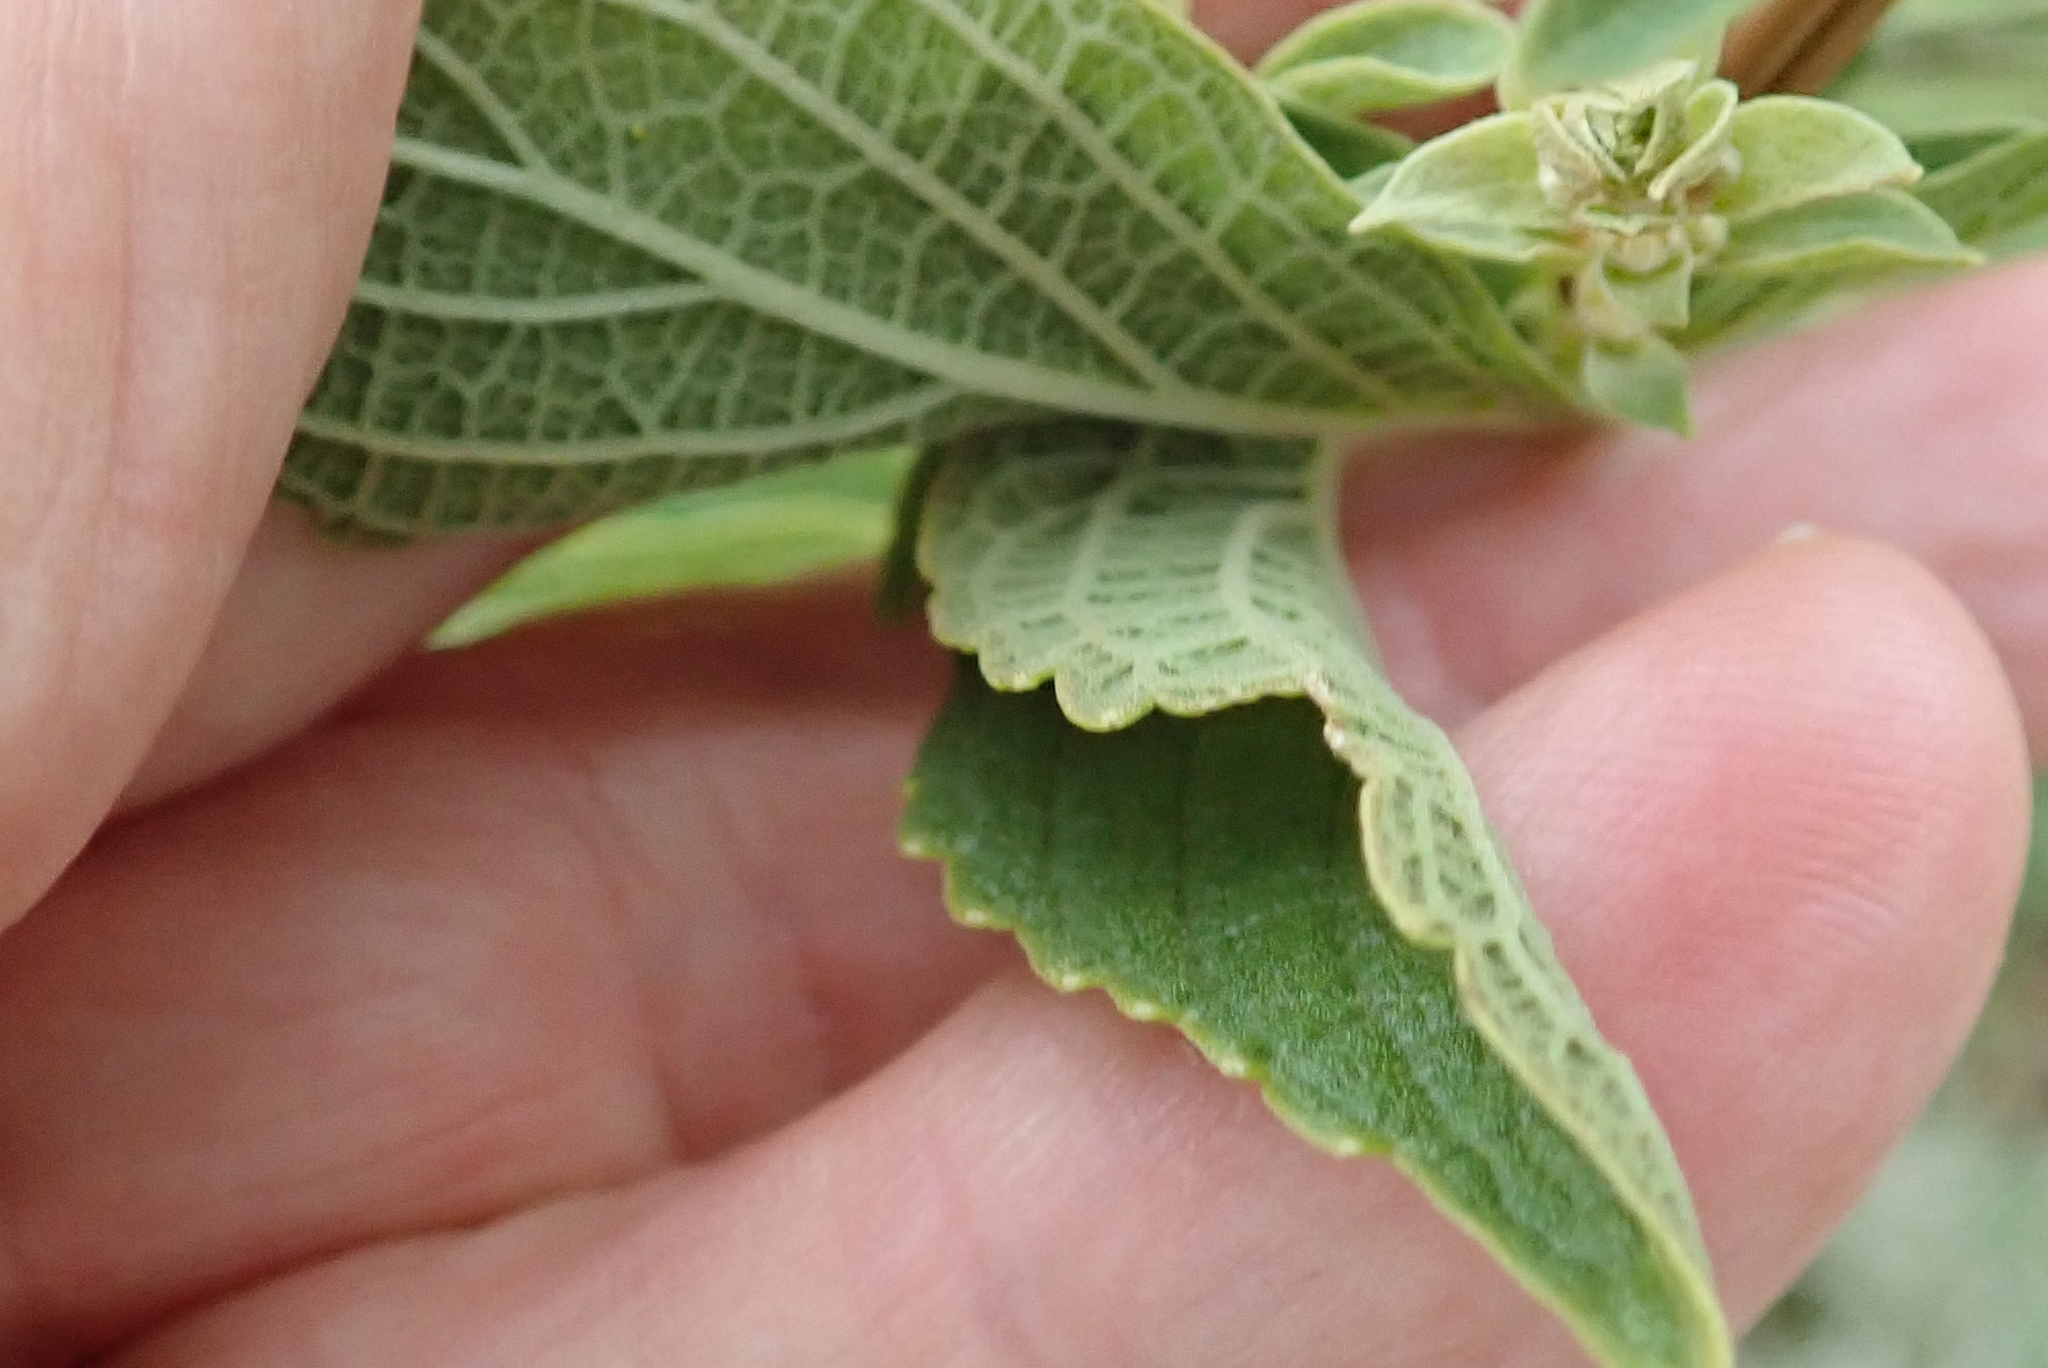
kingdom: Plantae
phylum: Tracheophyta
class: Magnoliopsida
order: Lamiales
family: Lamiaceae
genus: Coleus
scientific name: Coleus calycinus
